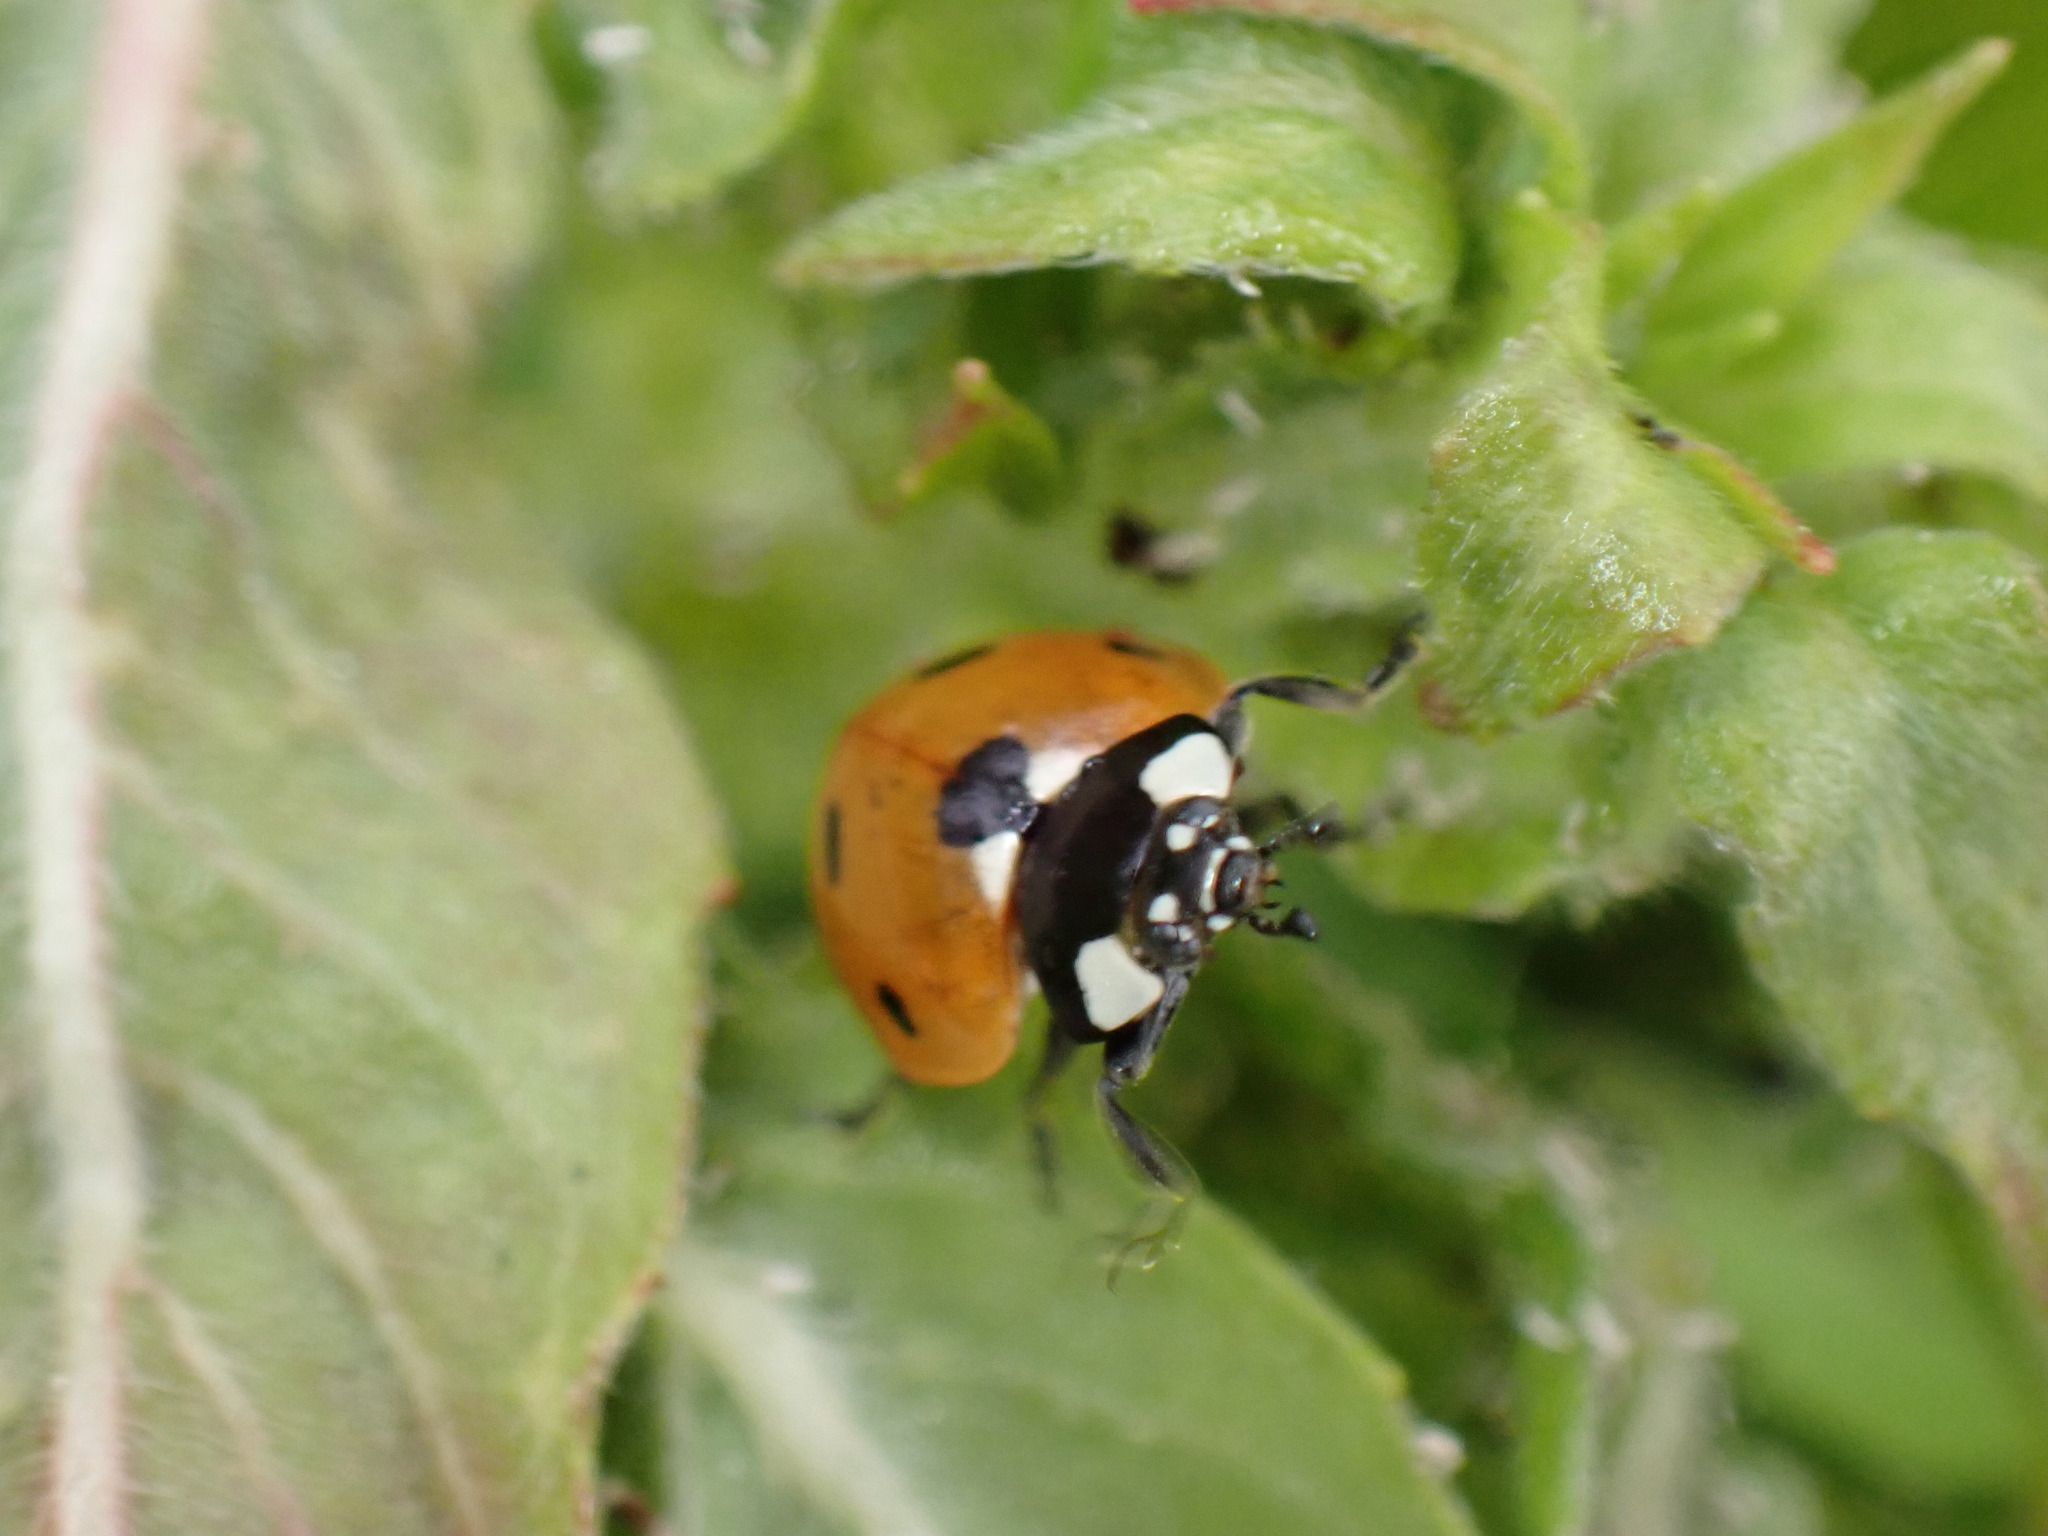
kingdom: Animalia
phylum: Arthropoda
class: Insecta
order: Coleoptera
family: Coccinellidae
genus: Coccinella
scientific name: Coccinella septempunctata
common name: Sevenspotted lady beetle
